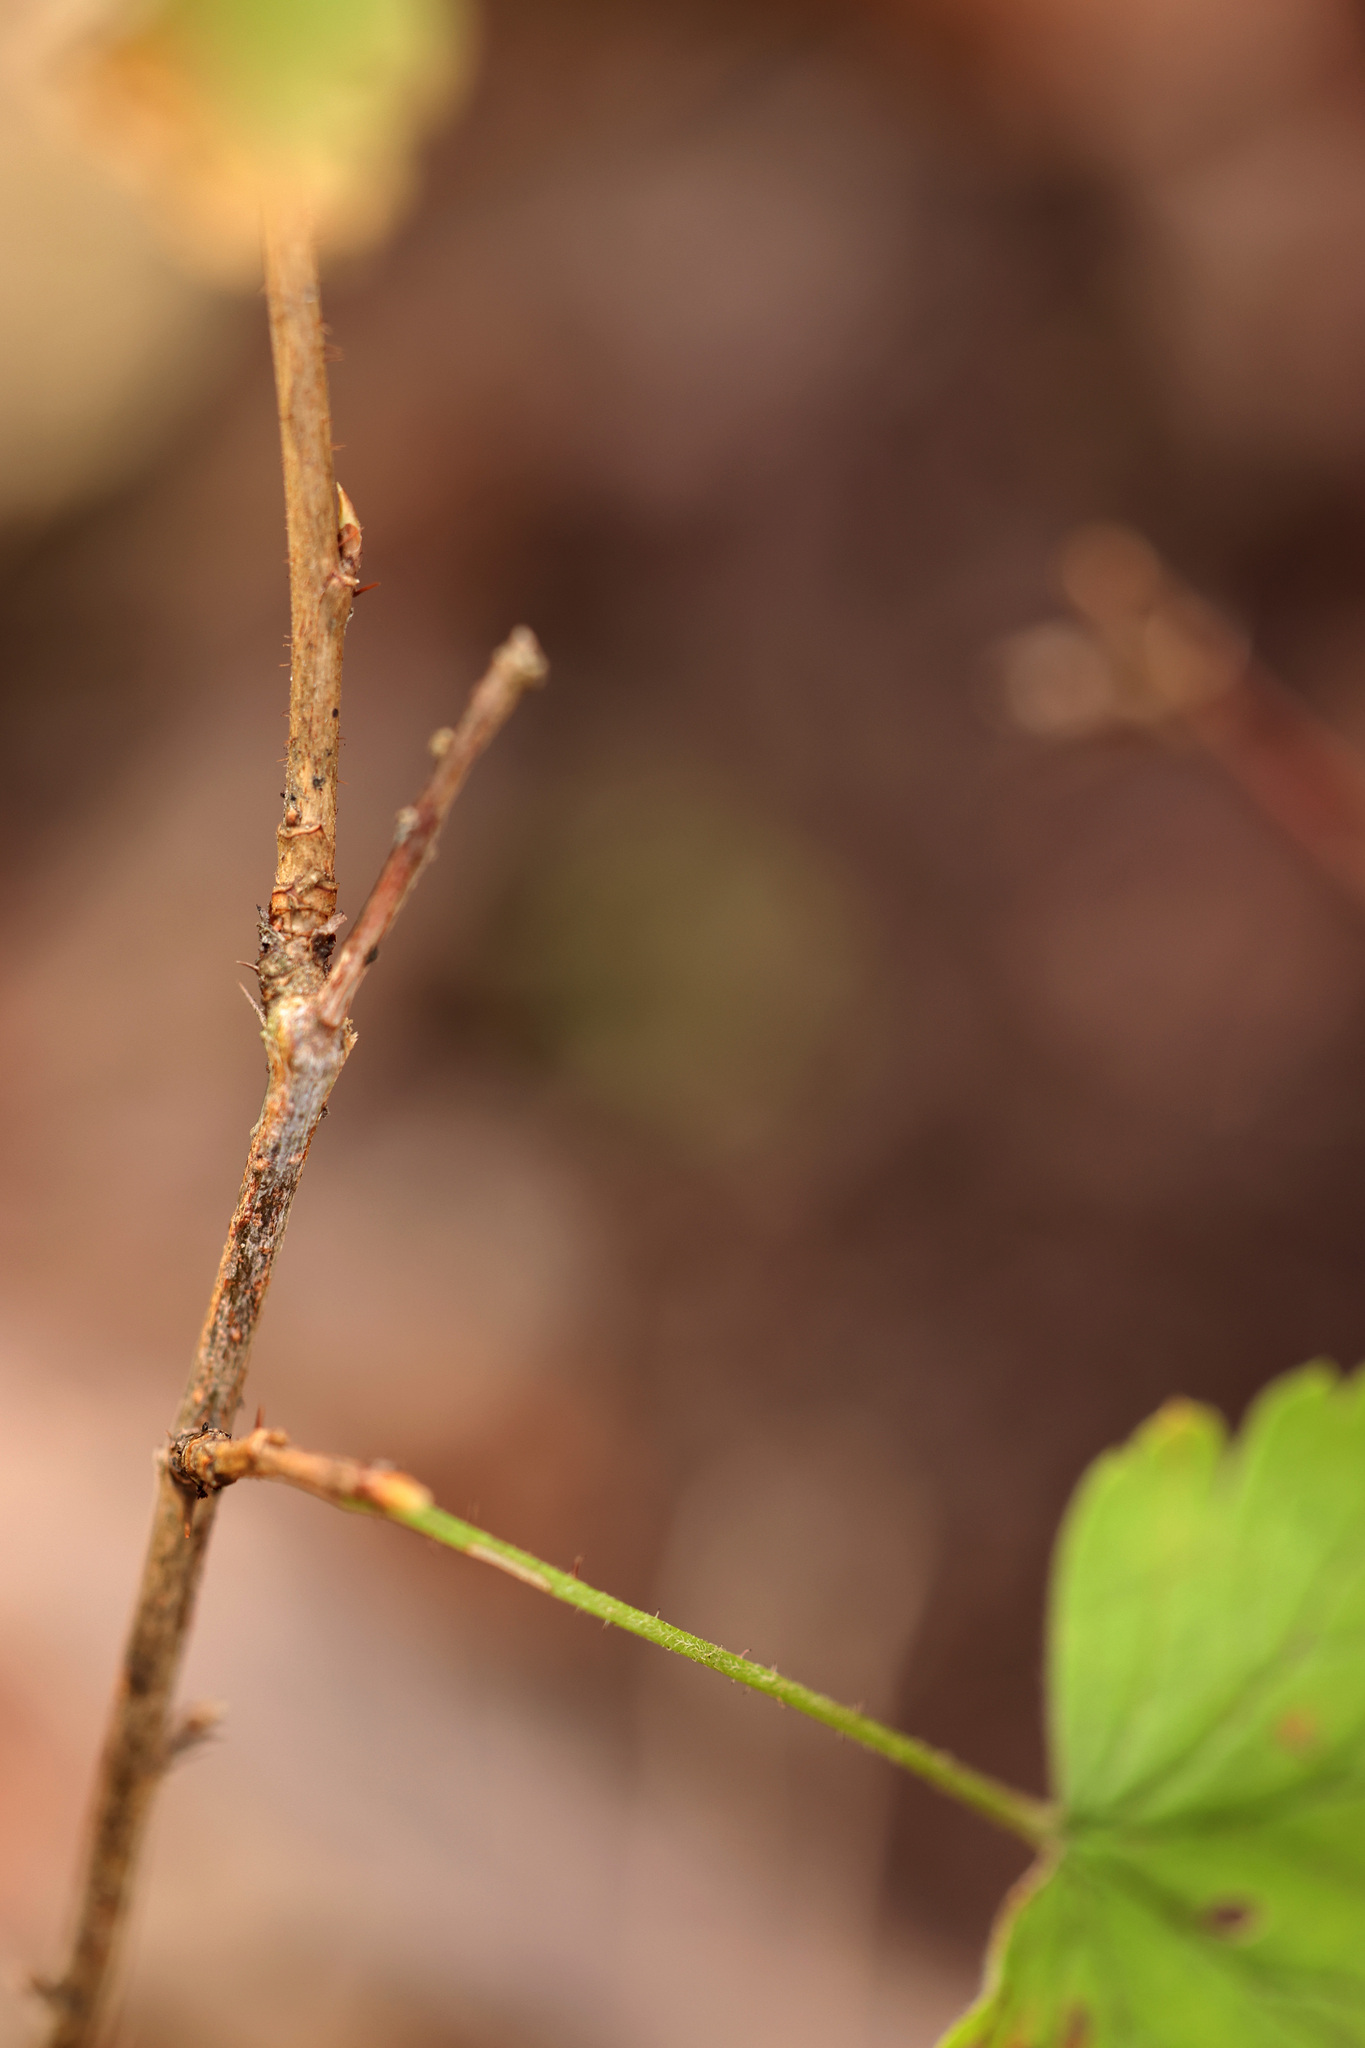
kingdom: Plantae
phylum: Tracheophyta
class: Magnoliopsida
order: Saxifragales
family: Grossulariaceae
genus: Ribes
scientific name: Ribes cynosbati
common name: American gooseberry
